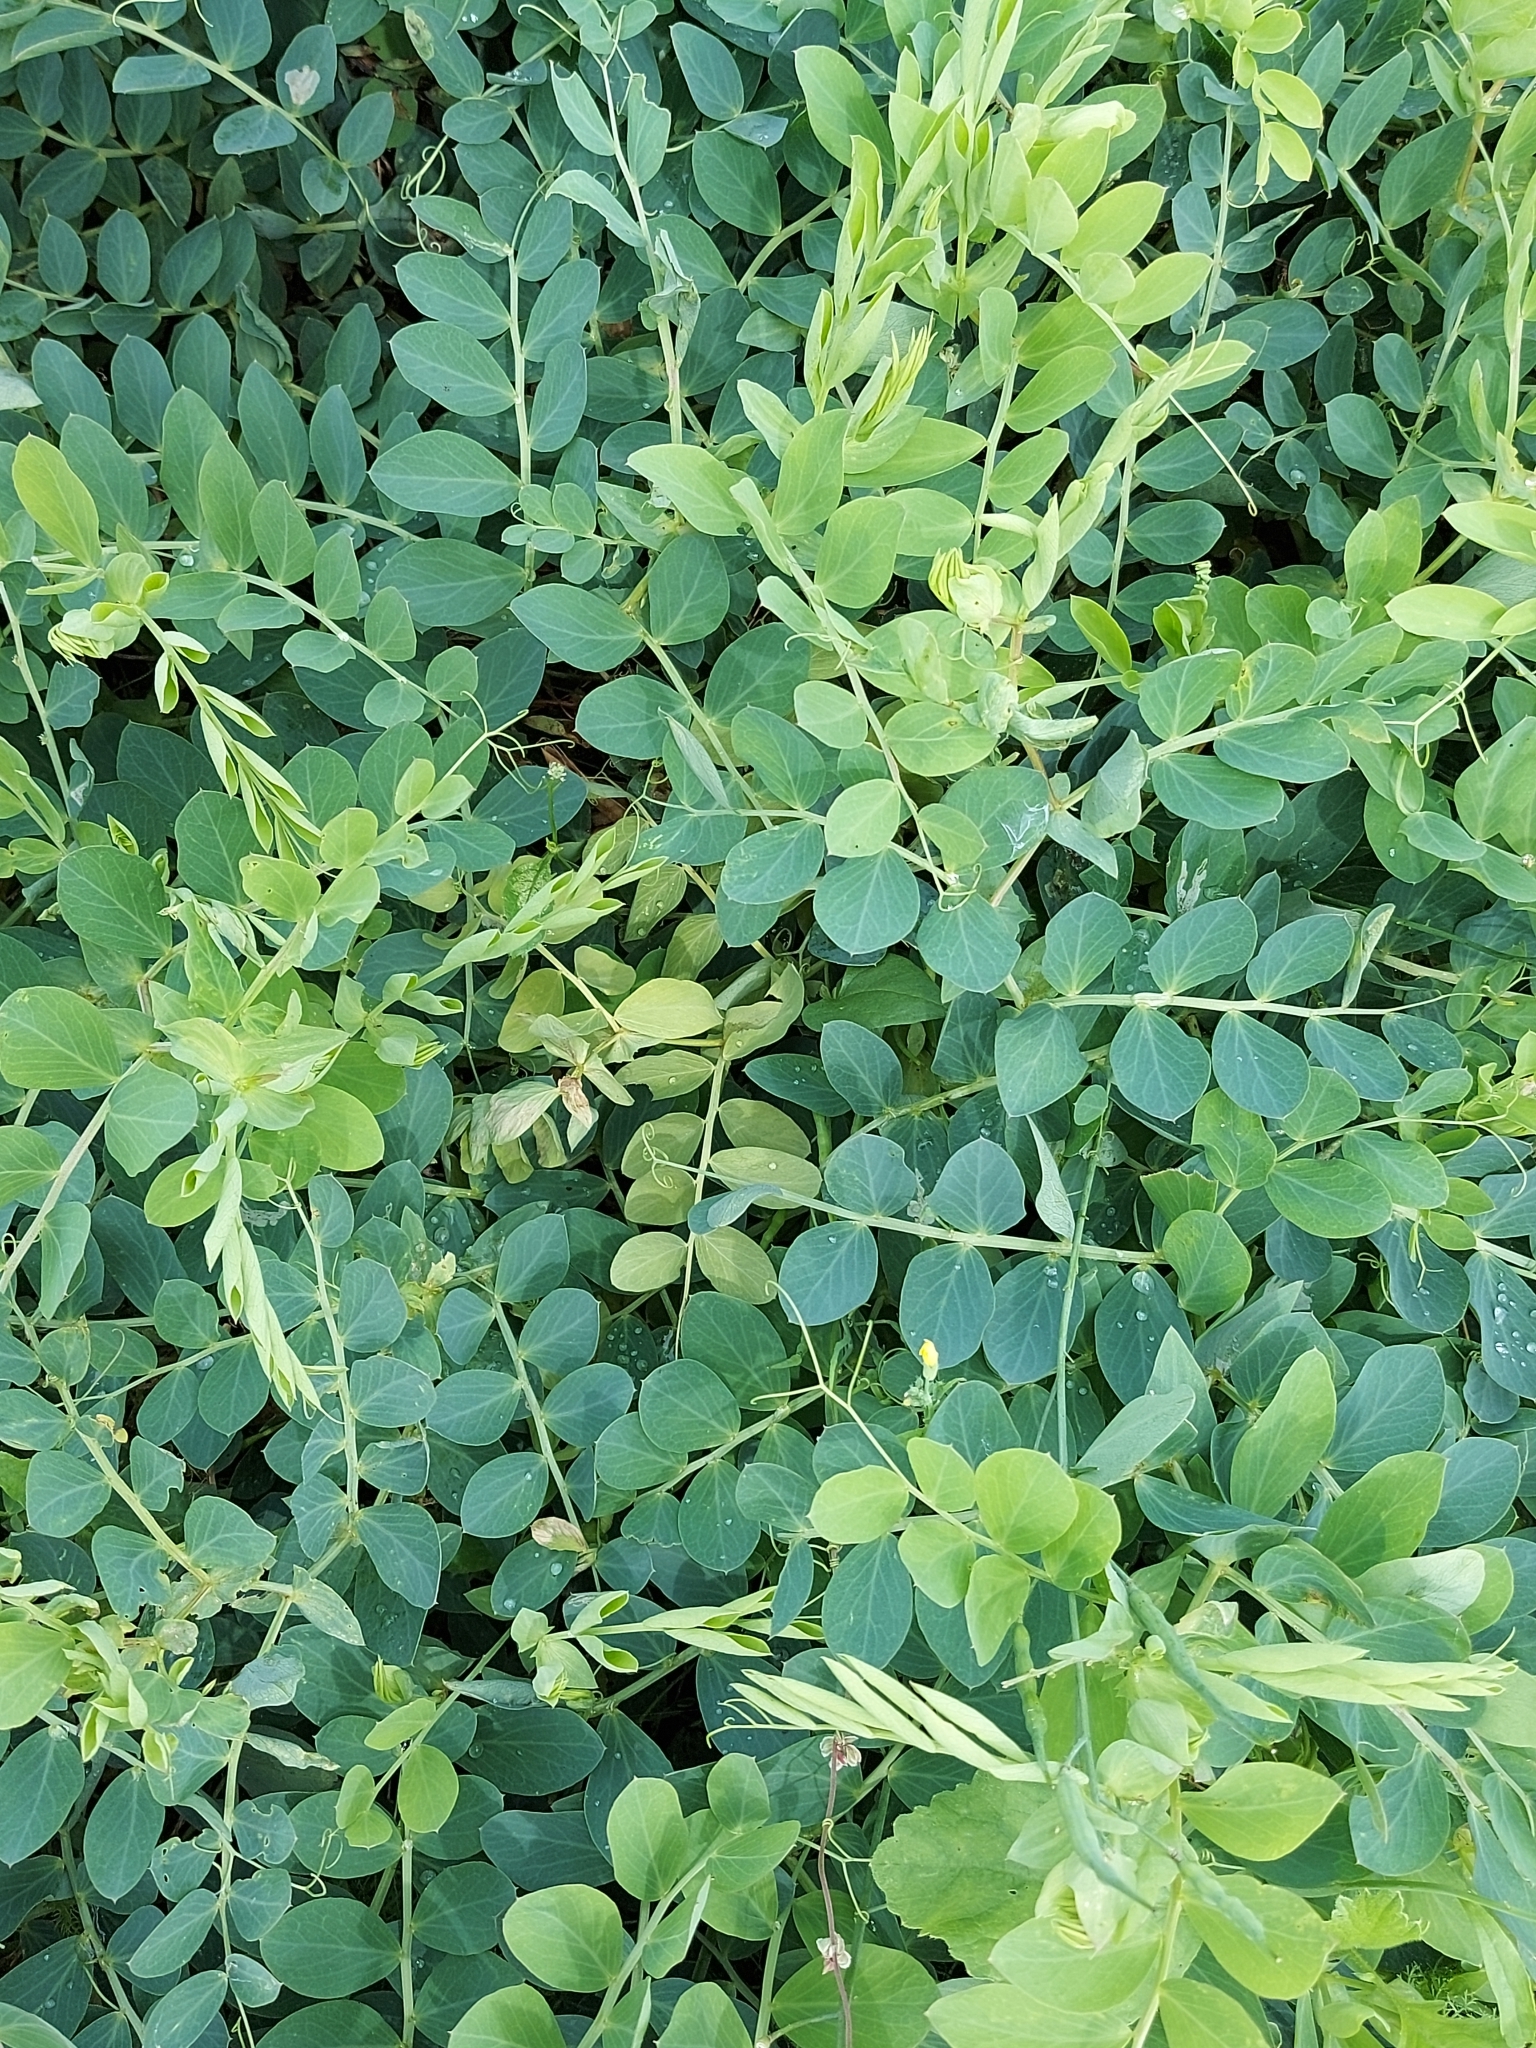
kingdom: Plantae
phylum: Tracheophyta
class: Magnoliopsida
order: Fabales
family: Fabaceae
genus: Lathyrus
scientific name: Lathyrus japonicus
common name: Sea pea
